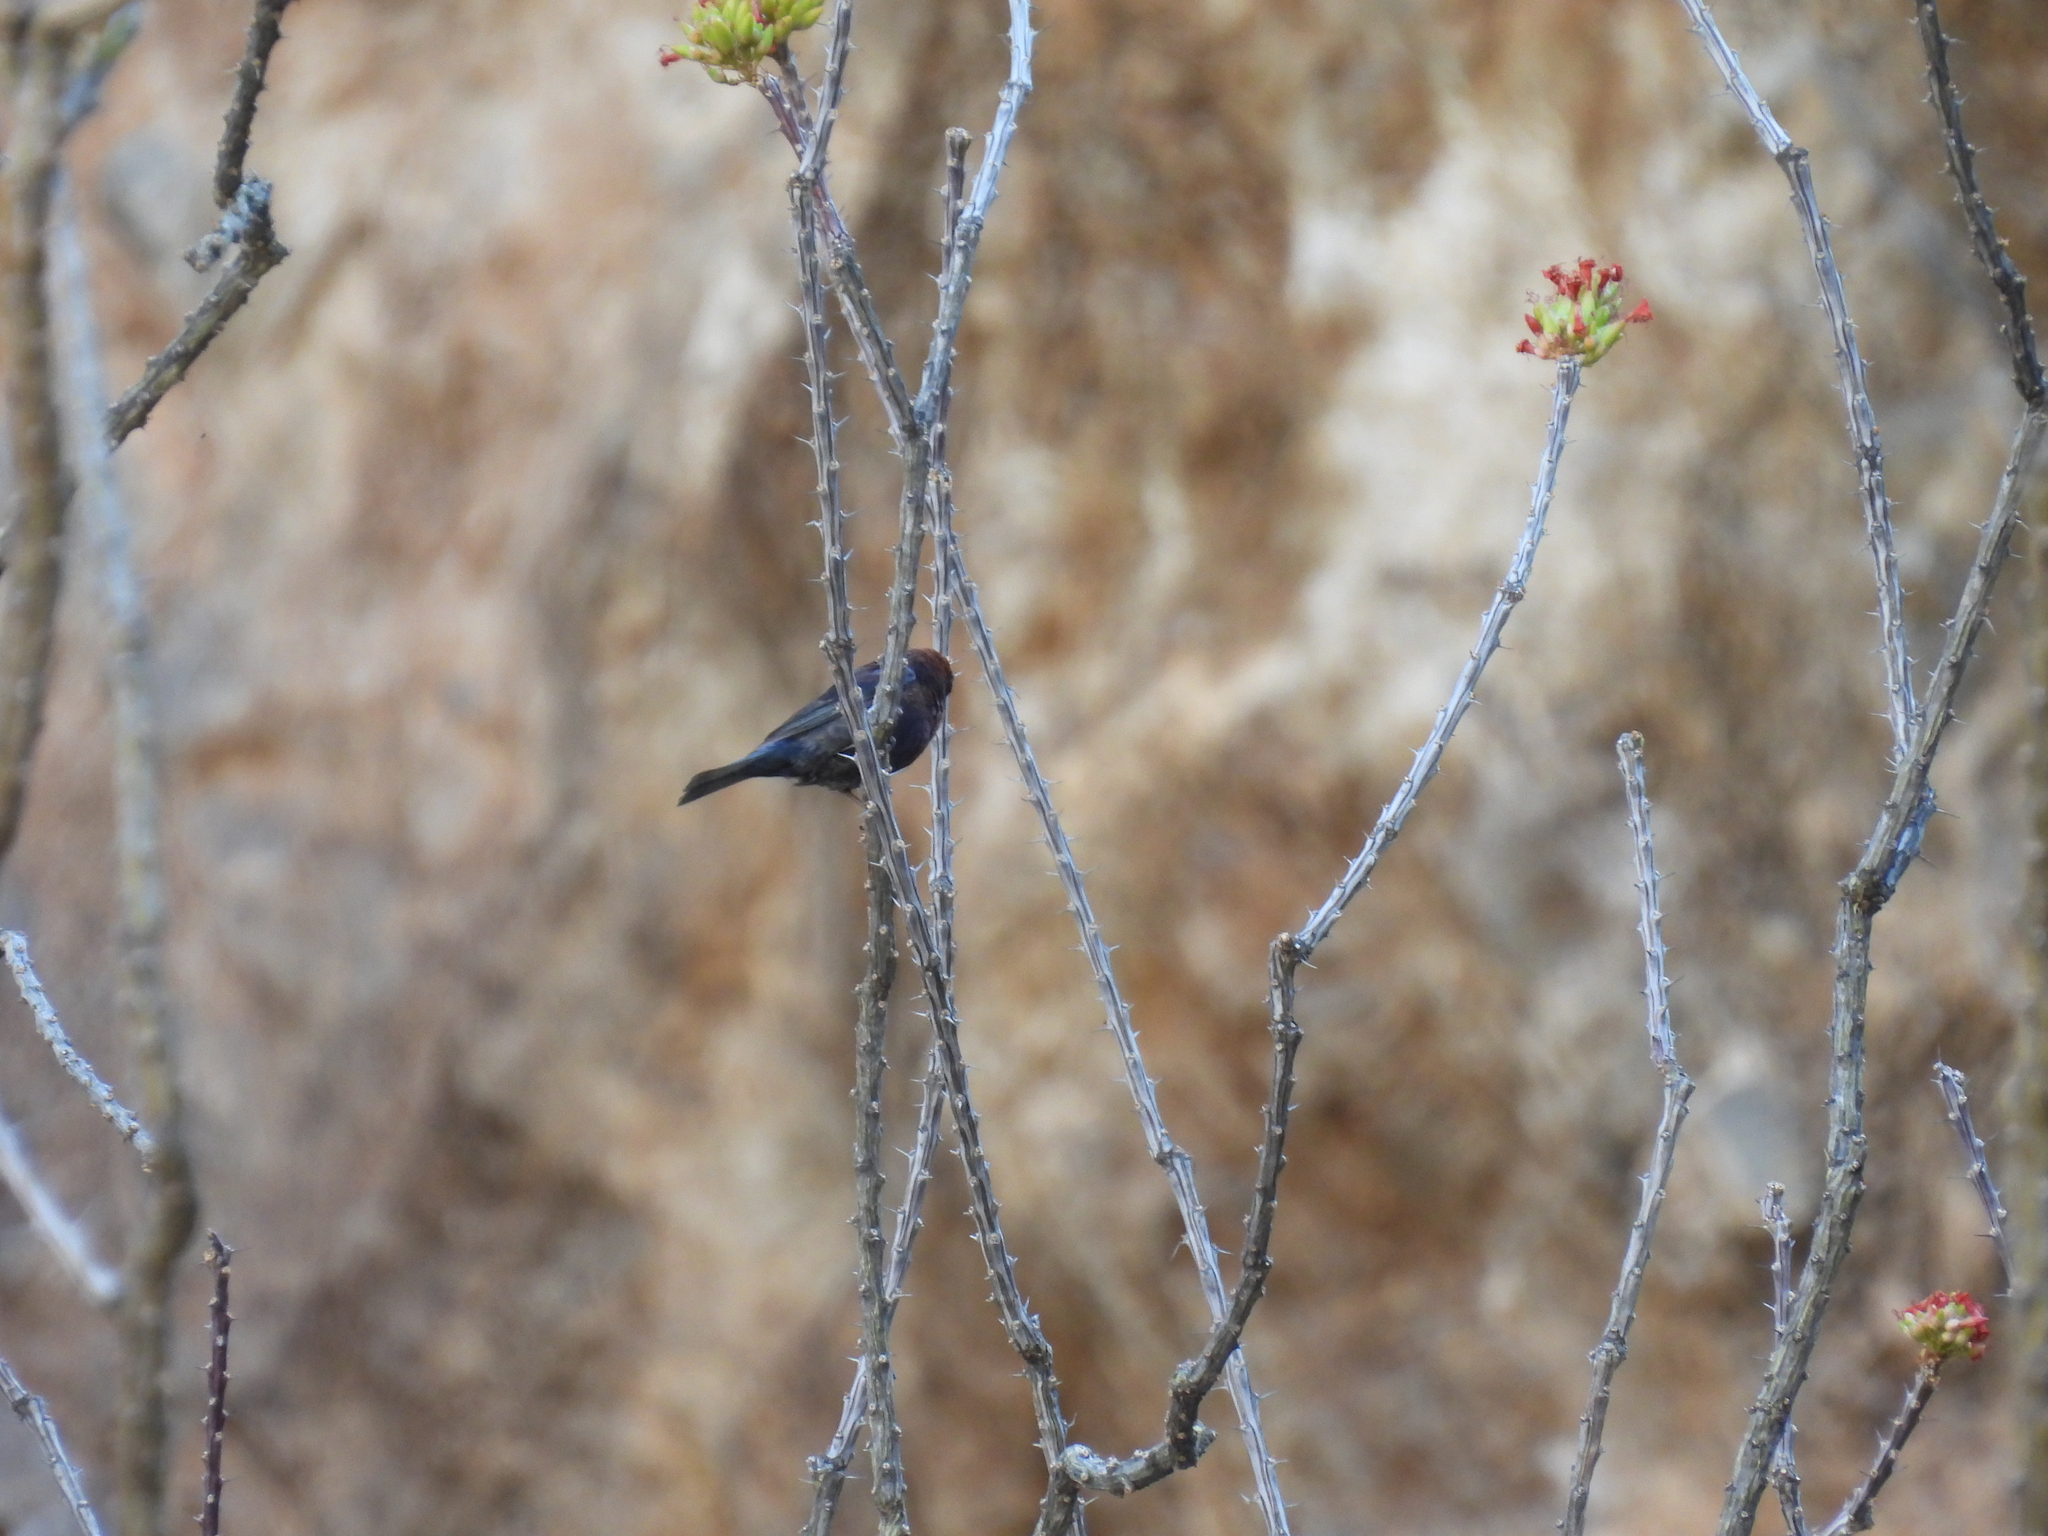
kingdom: Animalia
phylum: Chordata
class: Aves
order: Passeriformes
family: Cardinalidae
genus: Passerina
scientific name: Passerina versicolor
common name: Varied bunting
